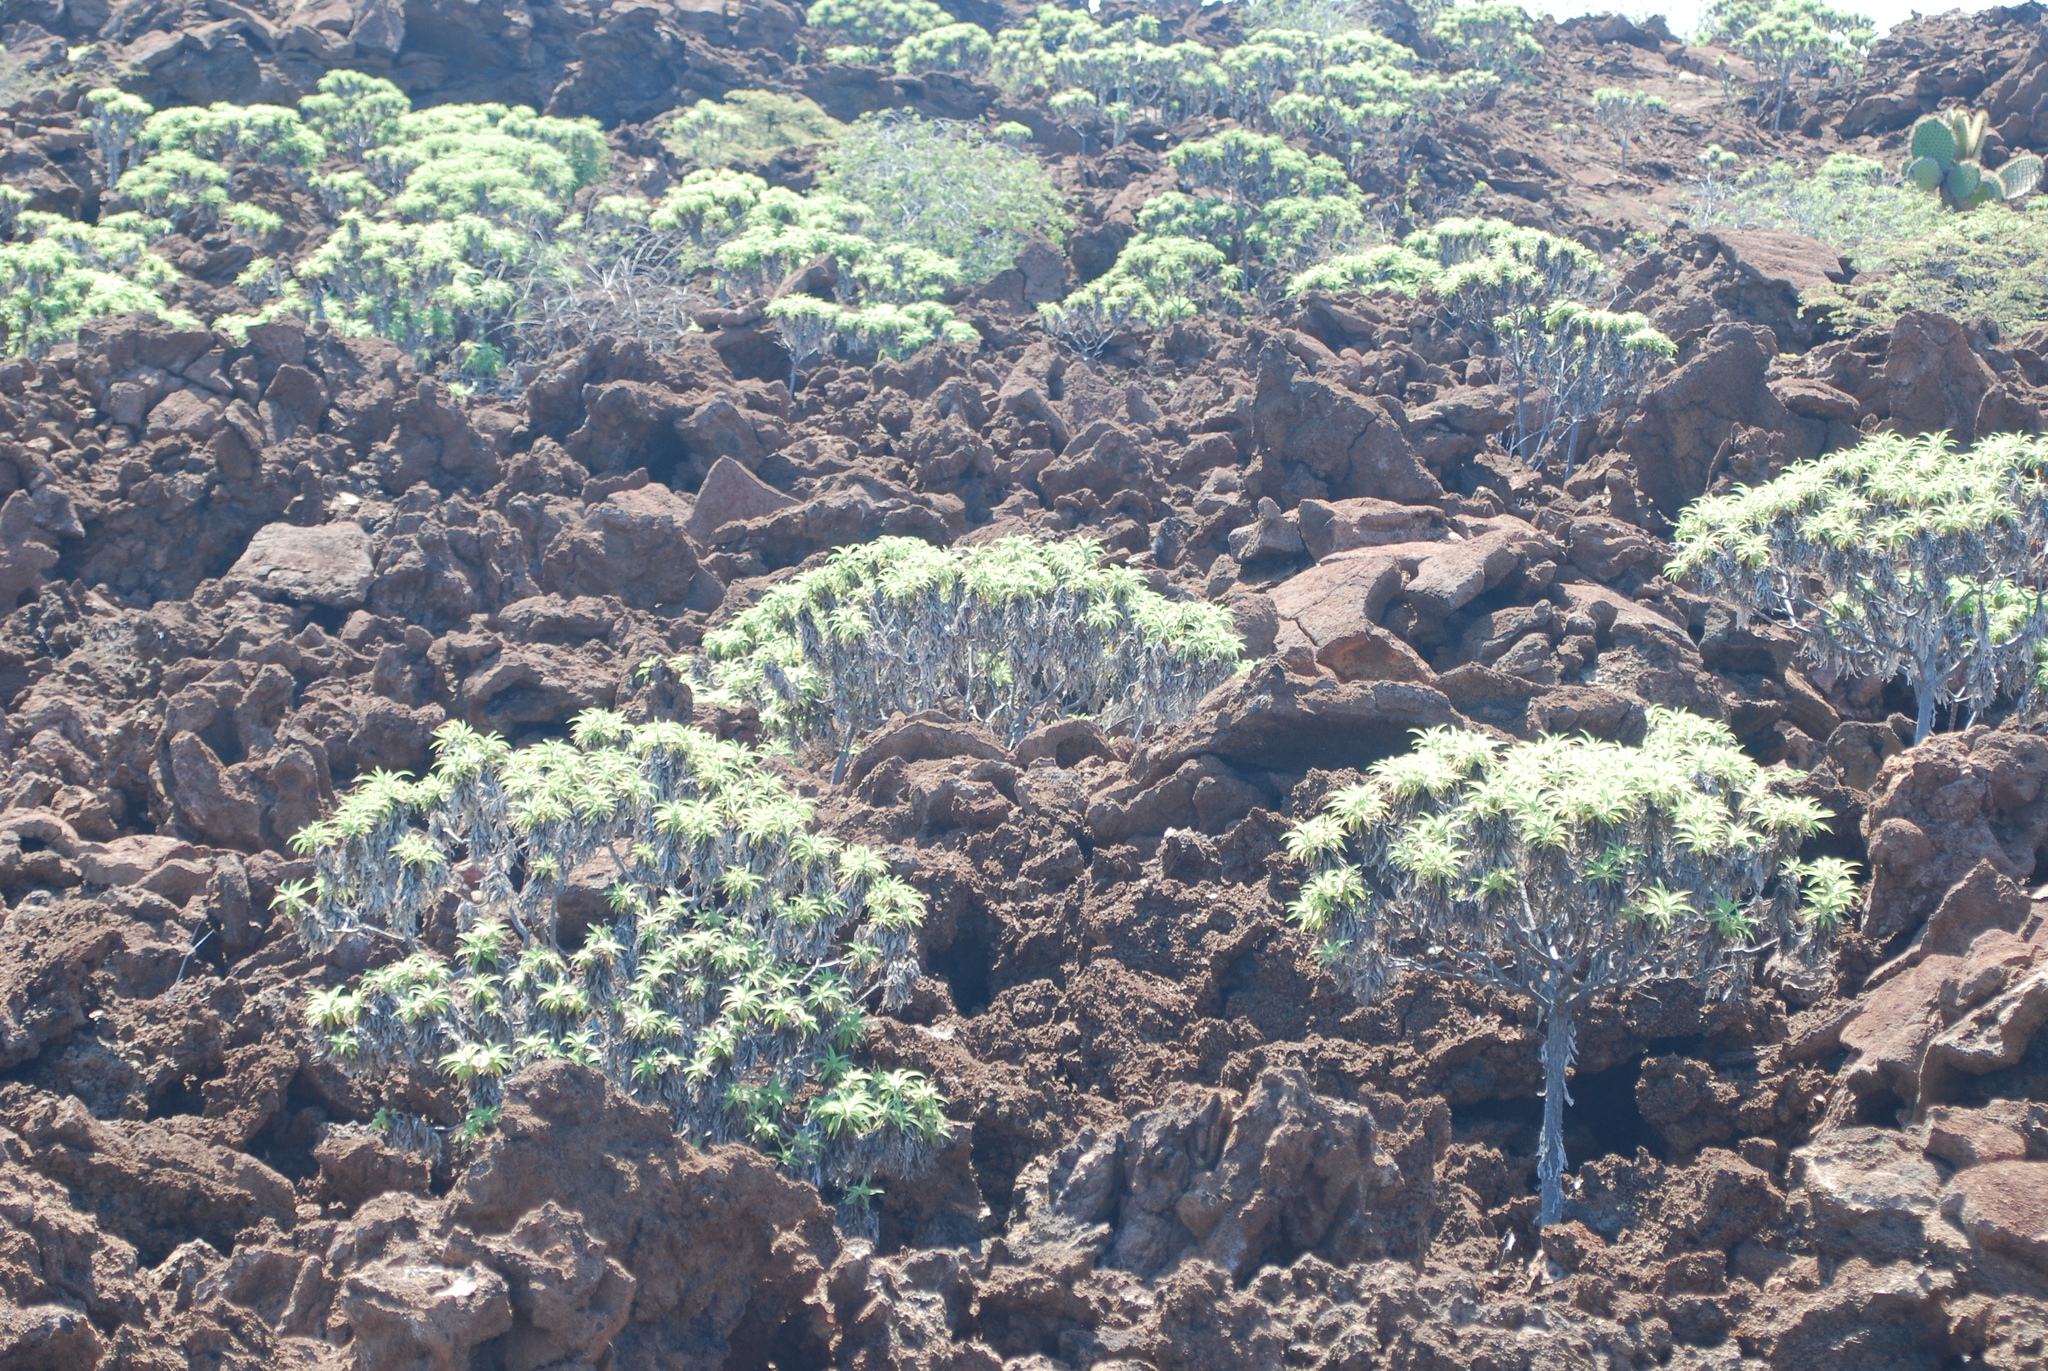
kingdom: Plantae
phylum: Tracheophyta
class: Magnoliopsida
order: Asterales
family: Asteraceae
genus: Scalesia
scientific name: Scalesia stewartii
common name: Stewart's scalesia
